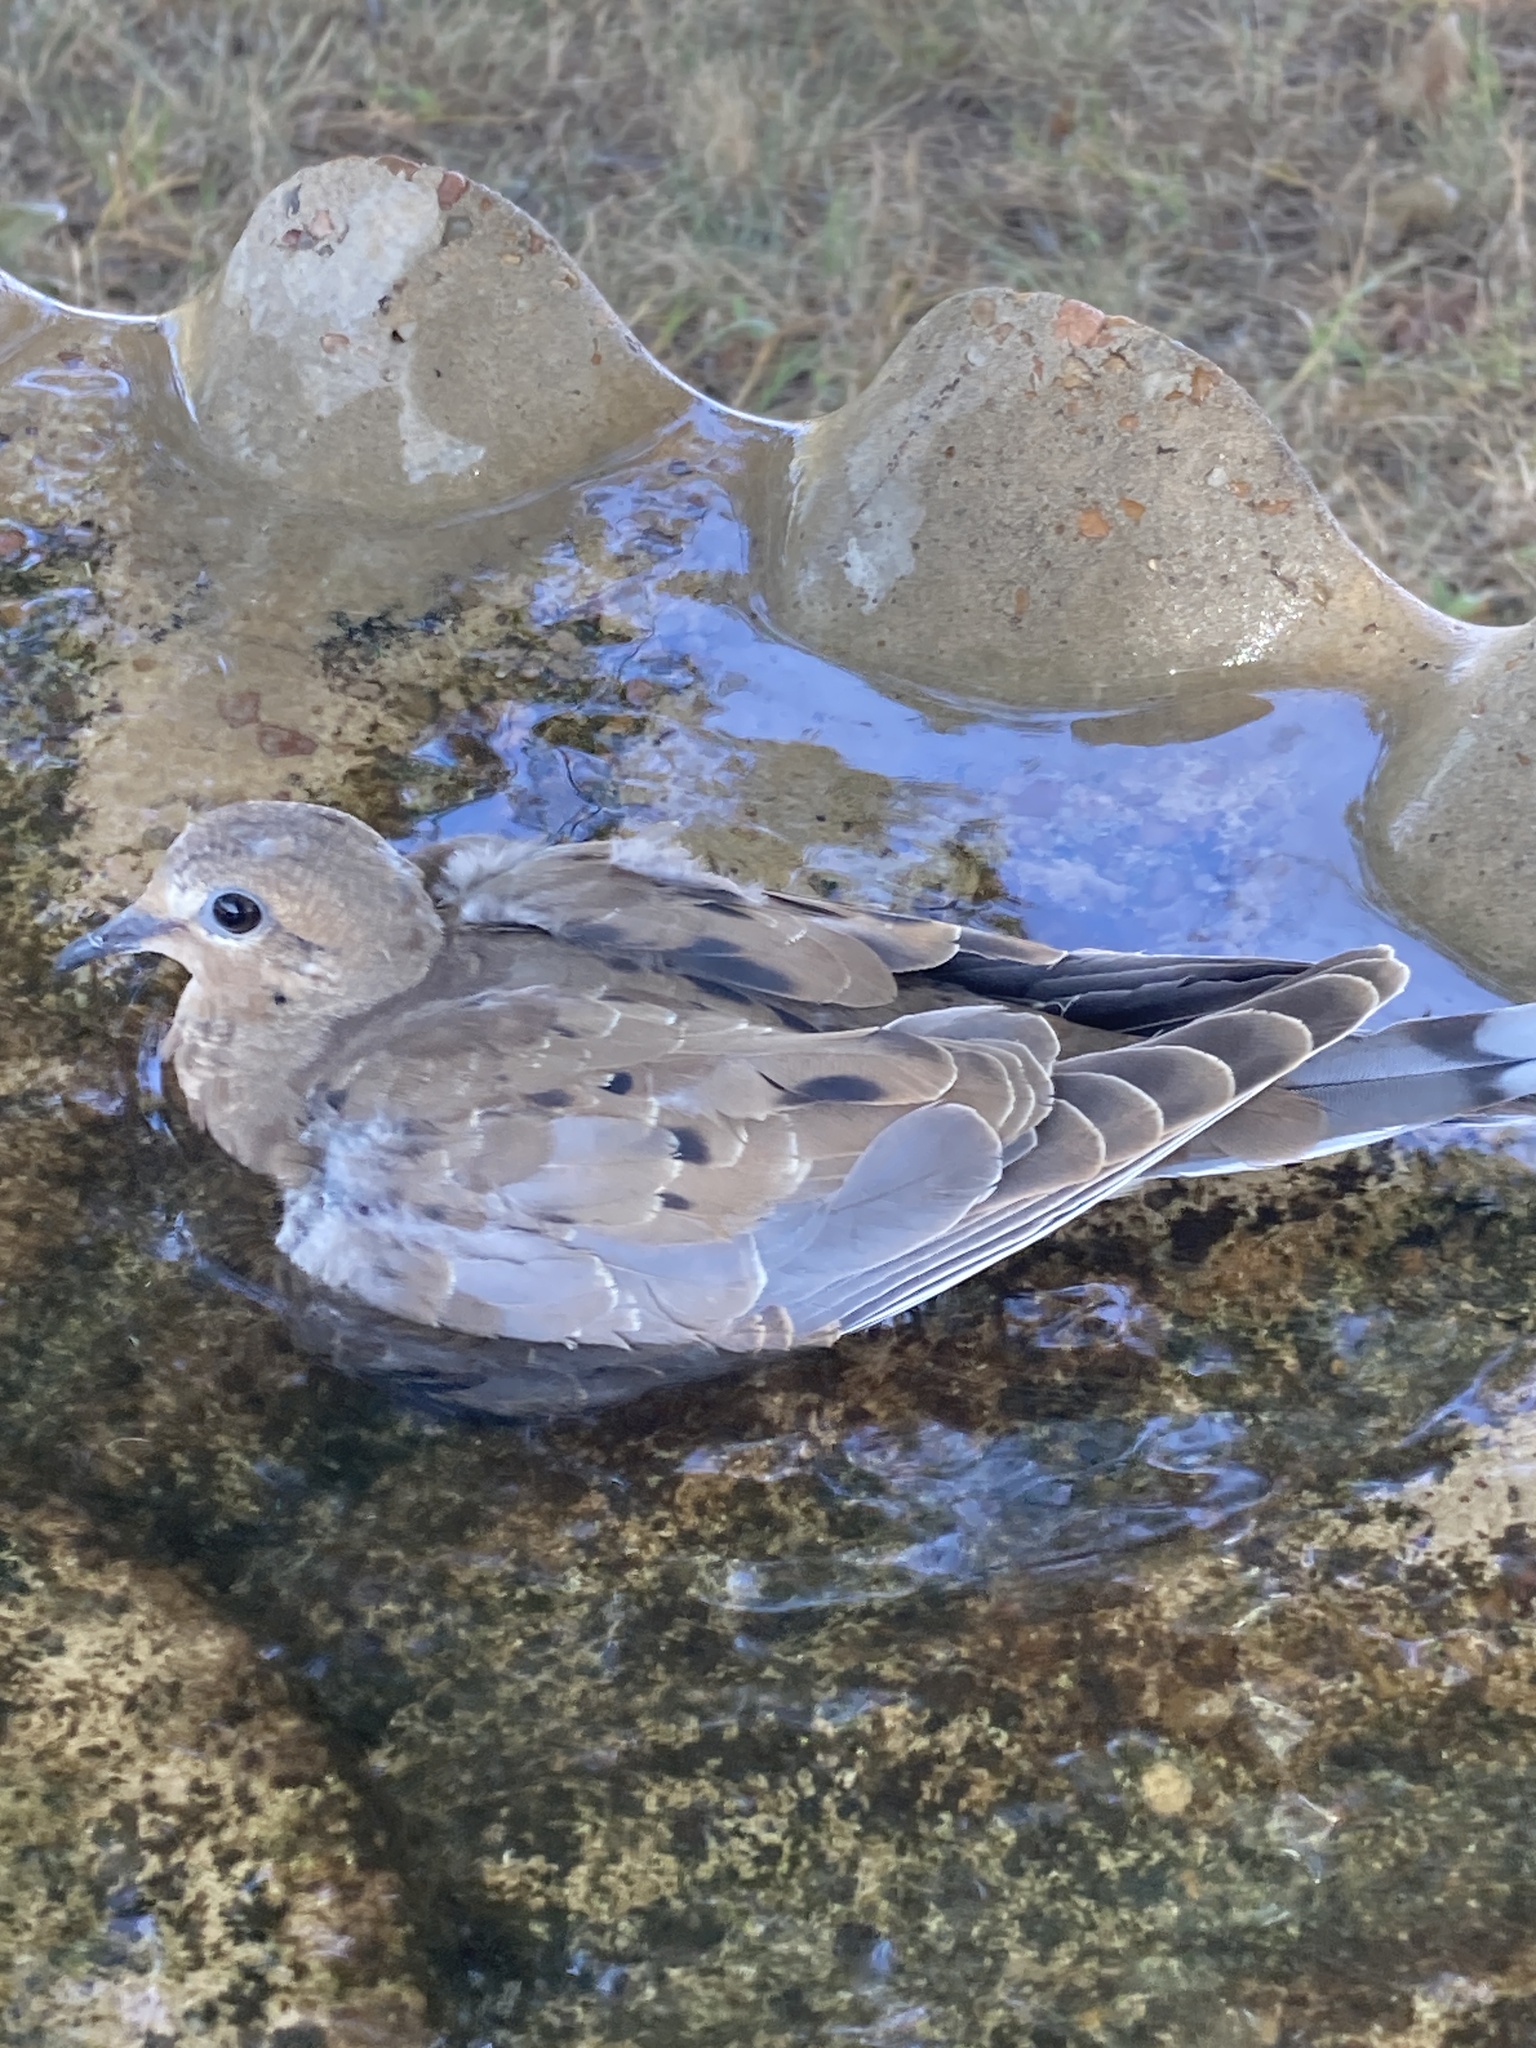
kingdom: Animalia
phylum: Chordata
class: Aves
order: Columbiformes
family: Columbidae
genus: Zenaida
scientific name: Zenaida macroura
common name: Mourning dove
